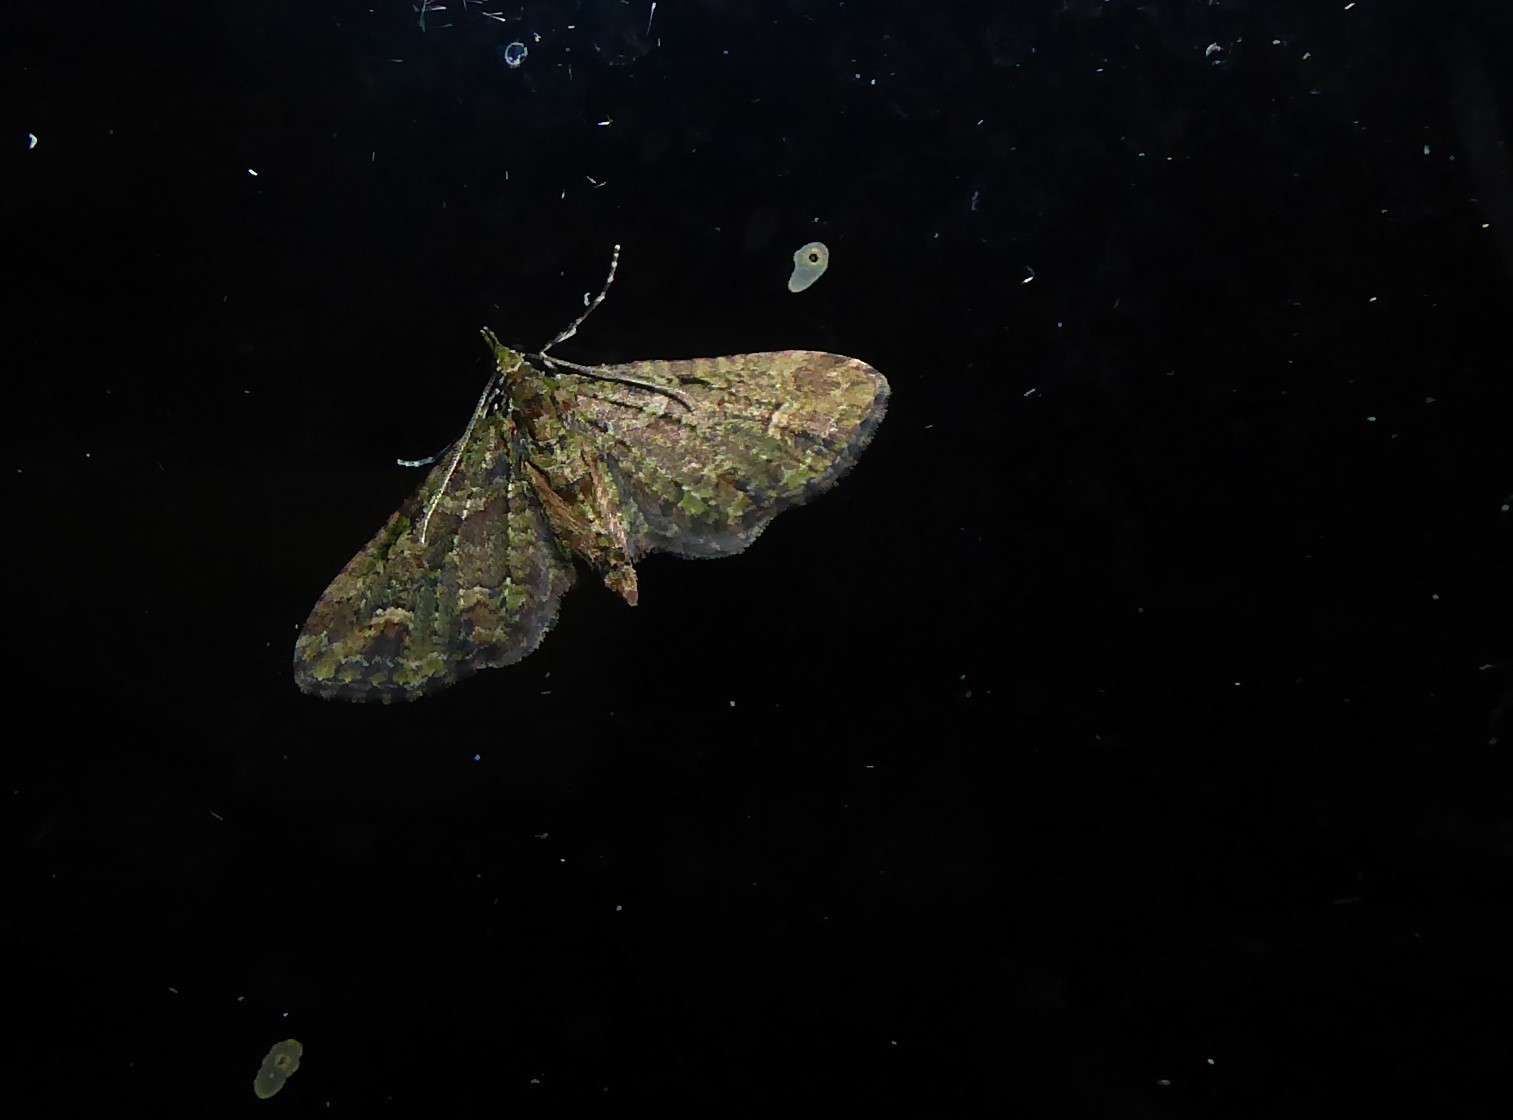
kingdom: Animalia
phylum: Arthropoda
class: Insecta
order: Lepidoptera
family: Geometridae
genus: Idaea
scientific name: Idaea mutanda
